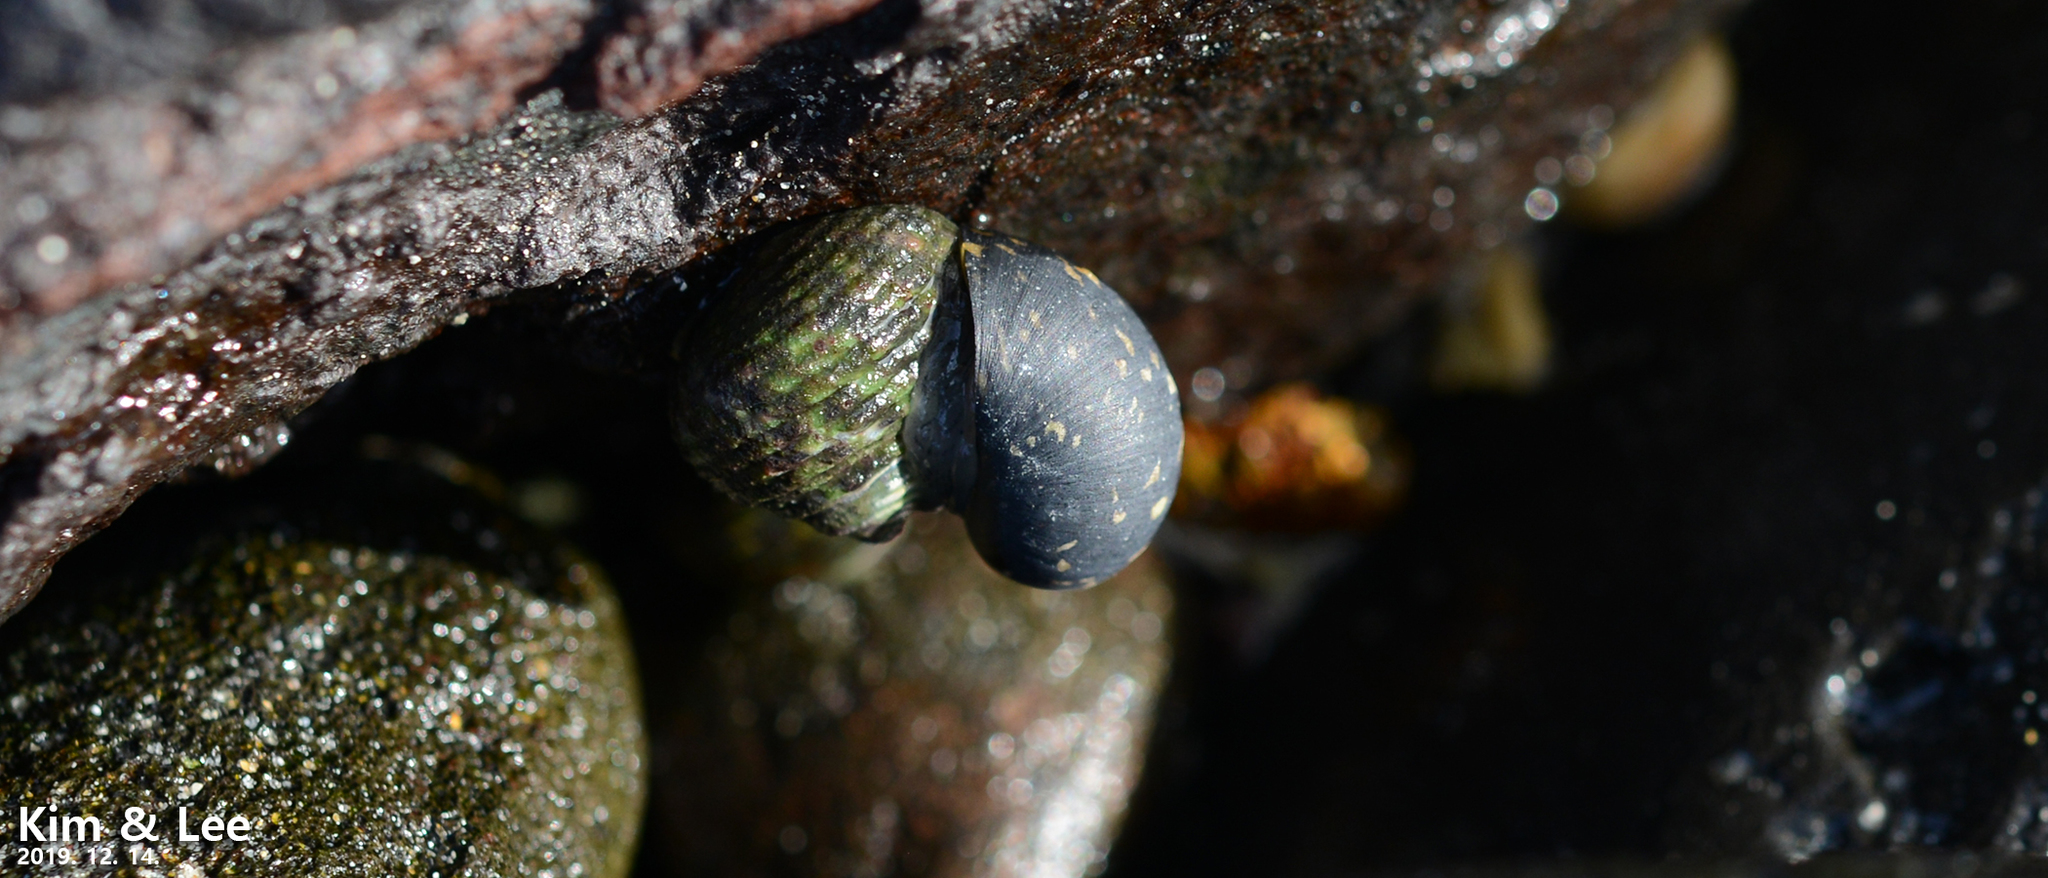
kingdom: Animalia
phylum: Mollusca
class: Gastropoda
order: Cycloneritida
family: Neritidae
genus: Nerita
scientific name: Nerita japonica
